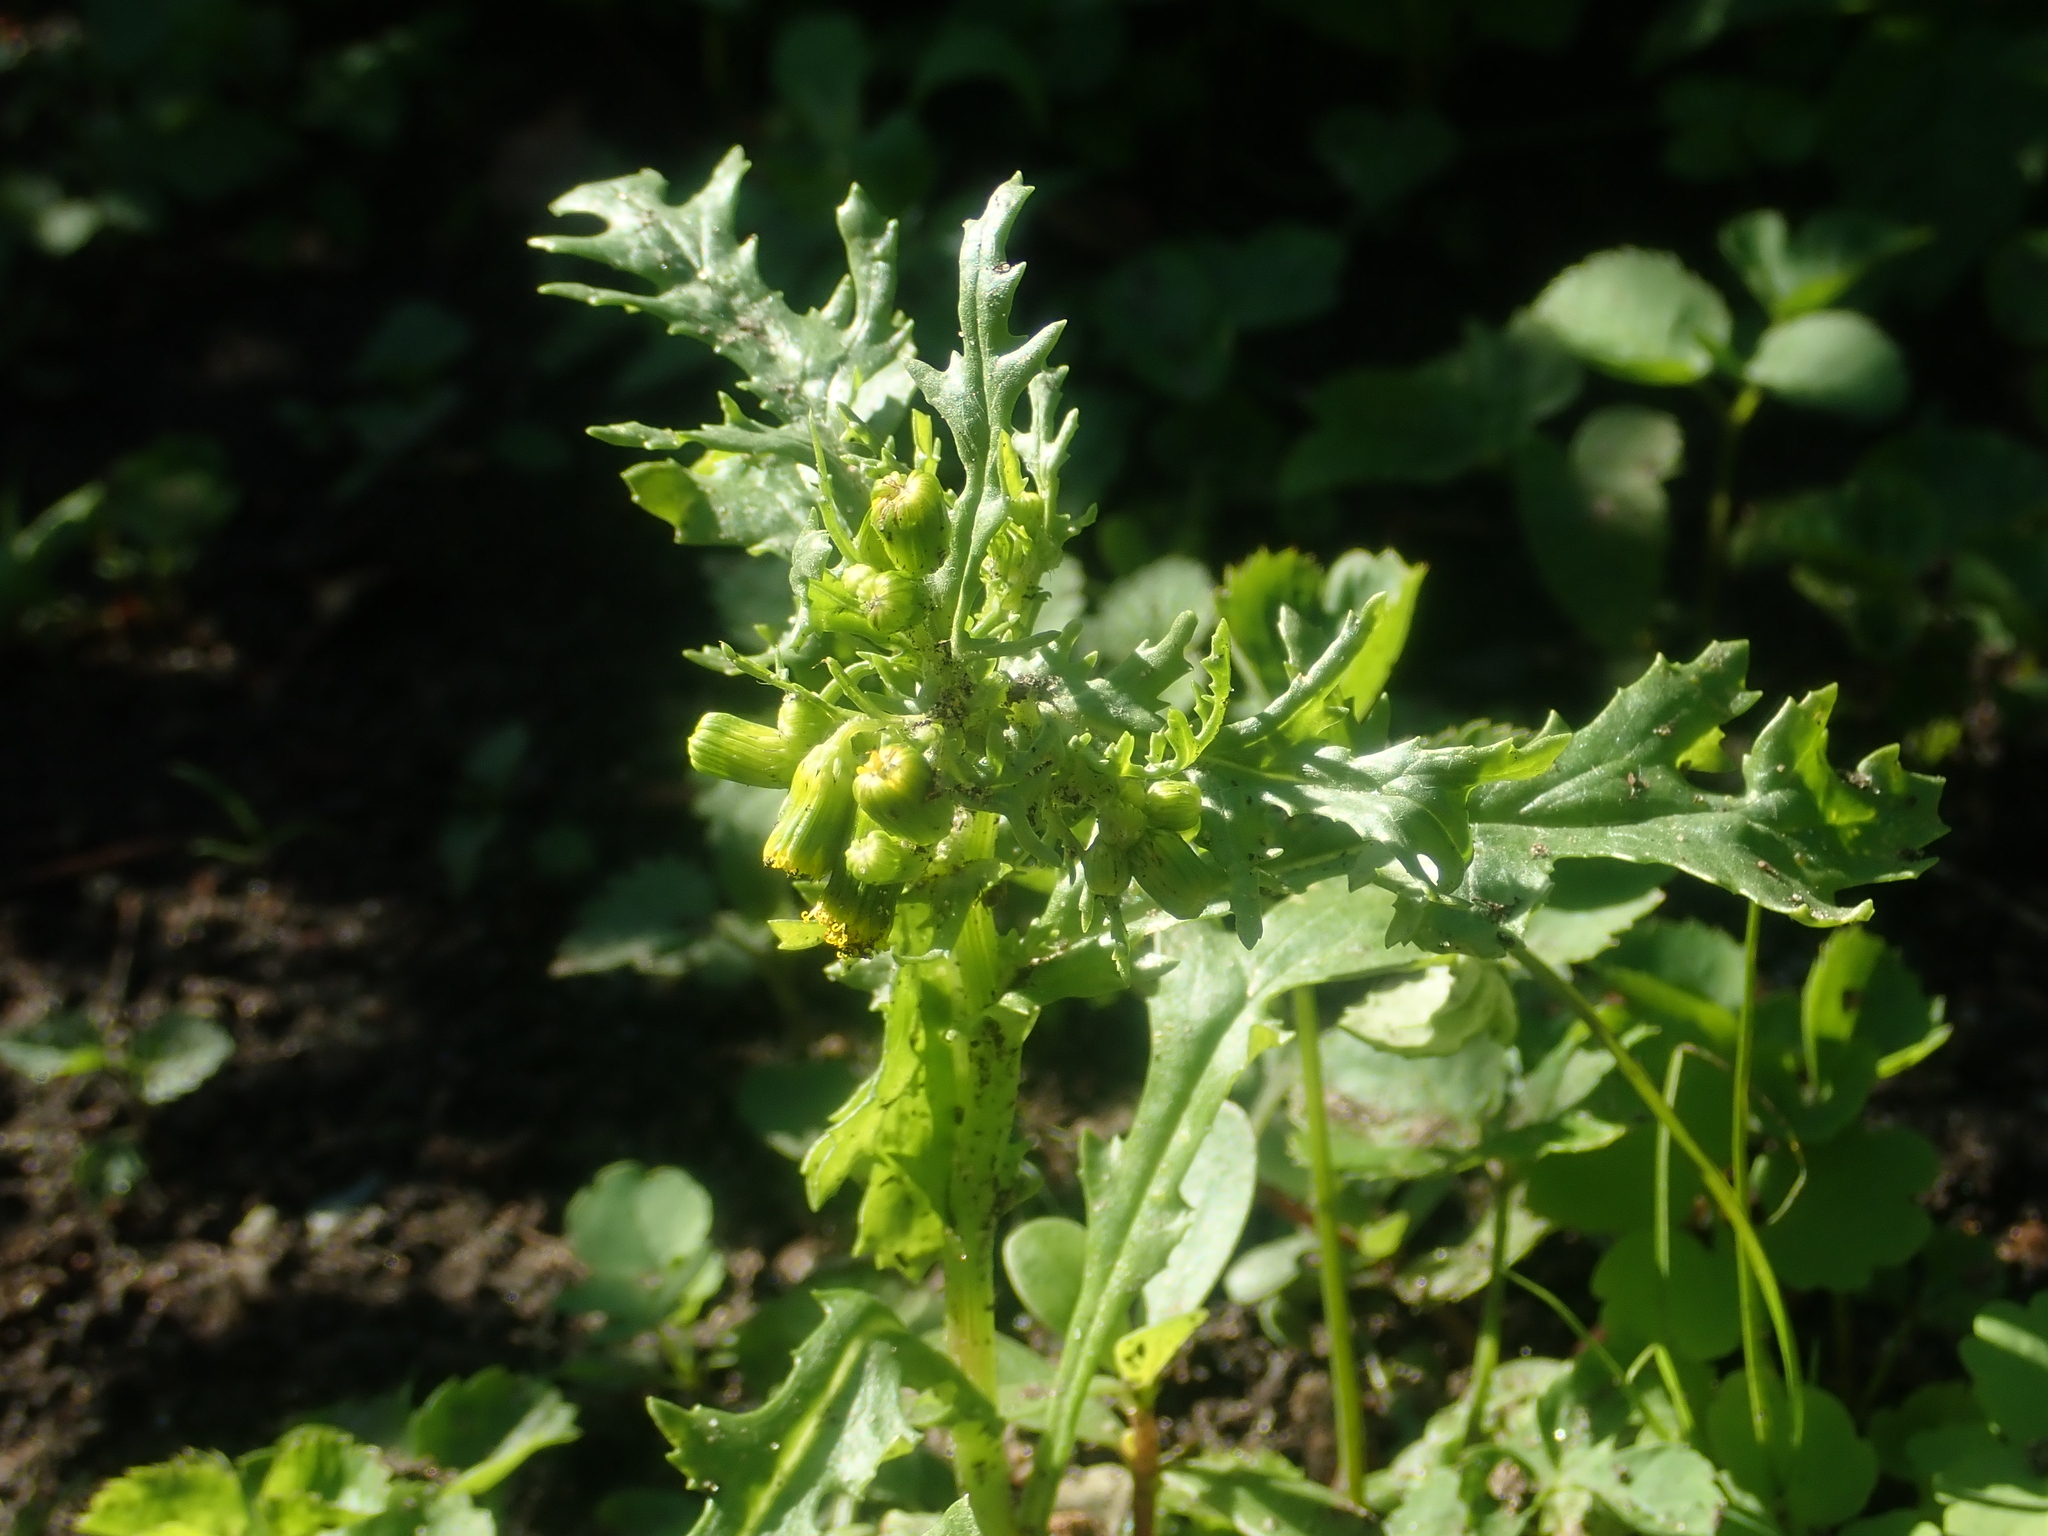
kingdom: Plantae
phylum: Tracheophyta
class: Magnoliopsida
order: Asterales
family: Asteraceae
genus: Senecio
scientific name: Senecio vulgaris
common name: Old-man-in-the-spring
